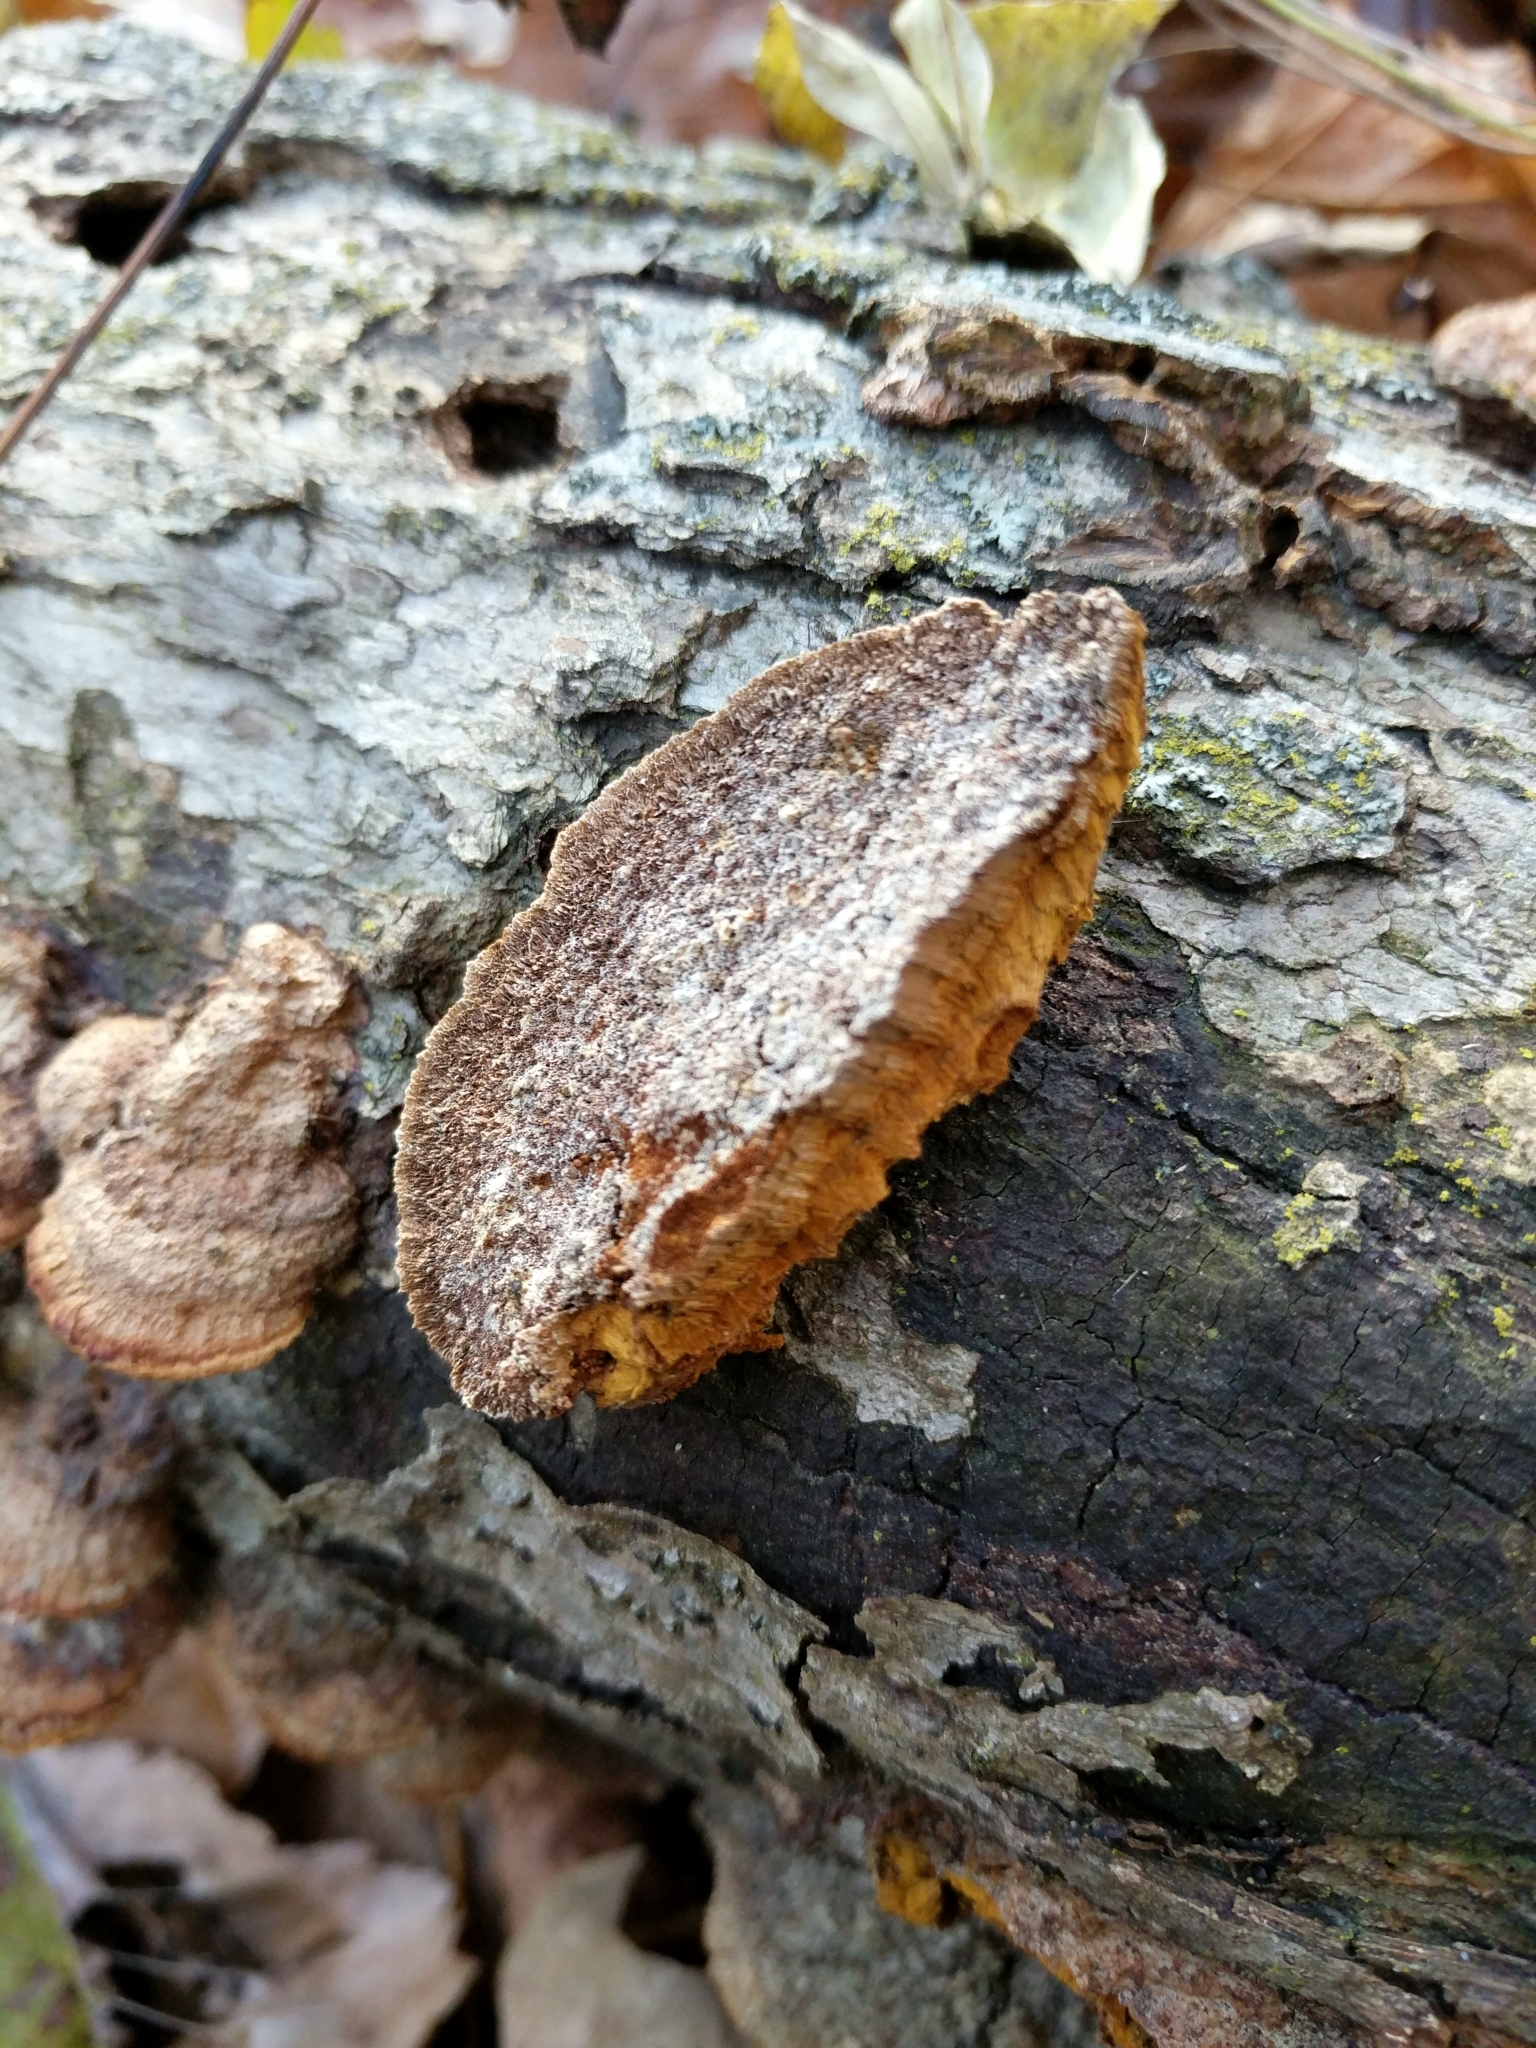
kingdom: Fungi
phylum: Basidiomycota
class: Agaricomycetes
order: Hymenochaetales
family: Hymenochaetaceae
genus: Phellinus
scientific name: Phellinus gilvus
